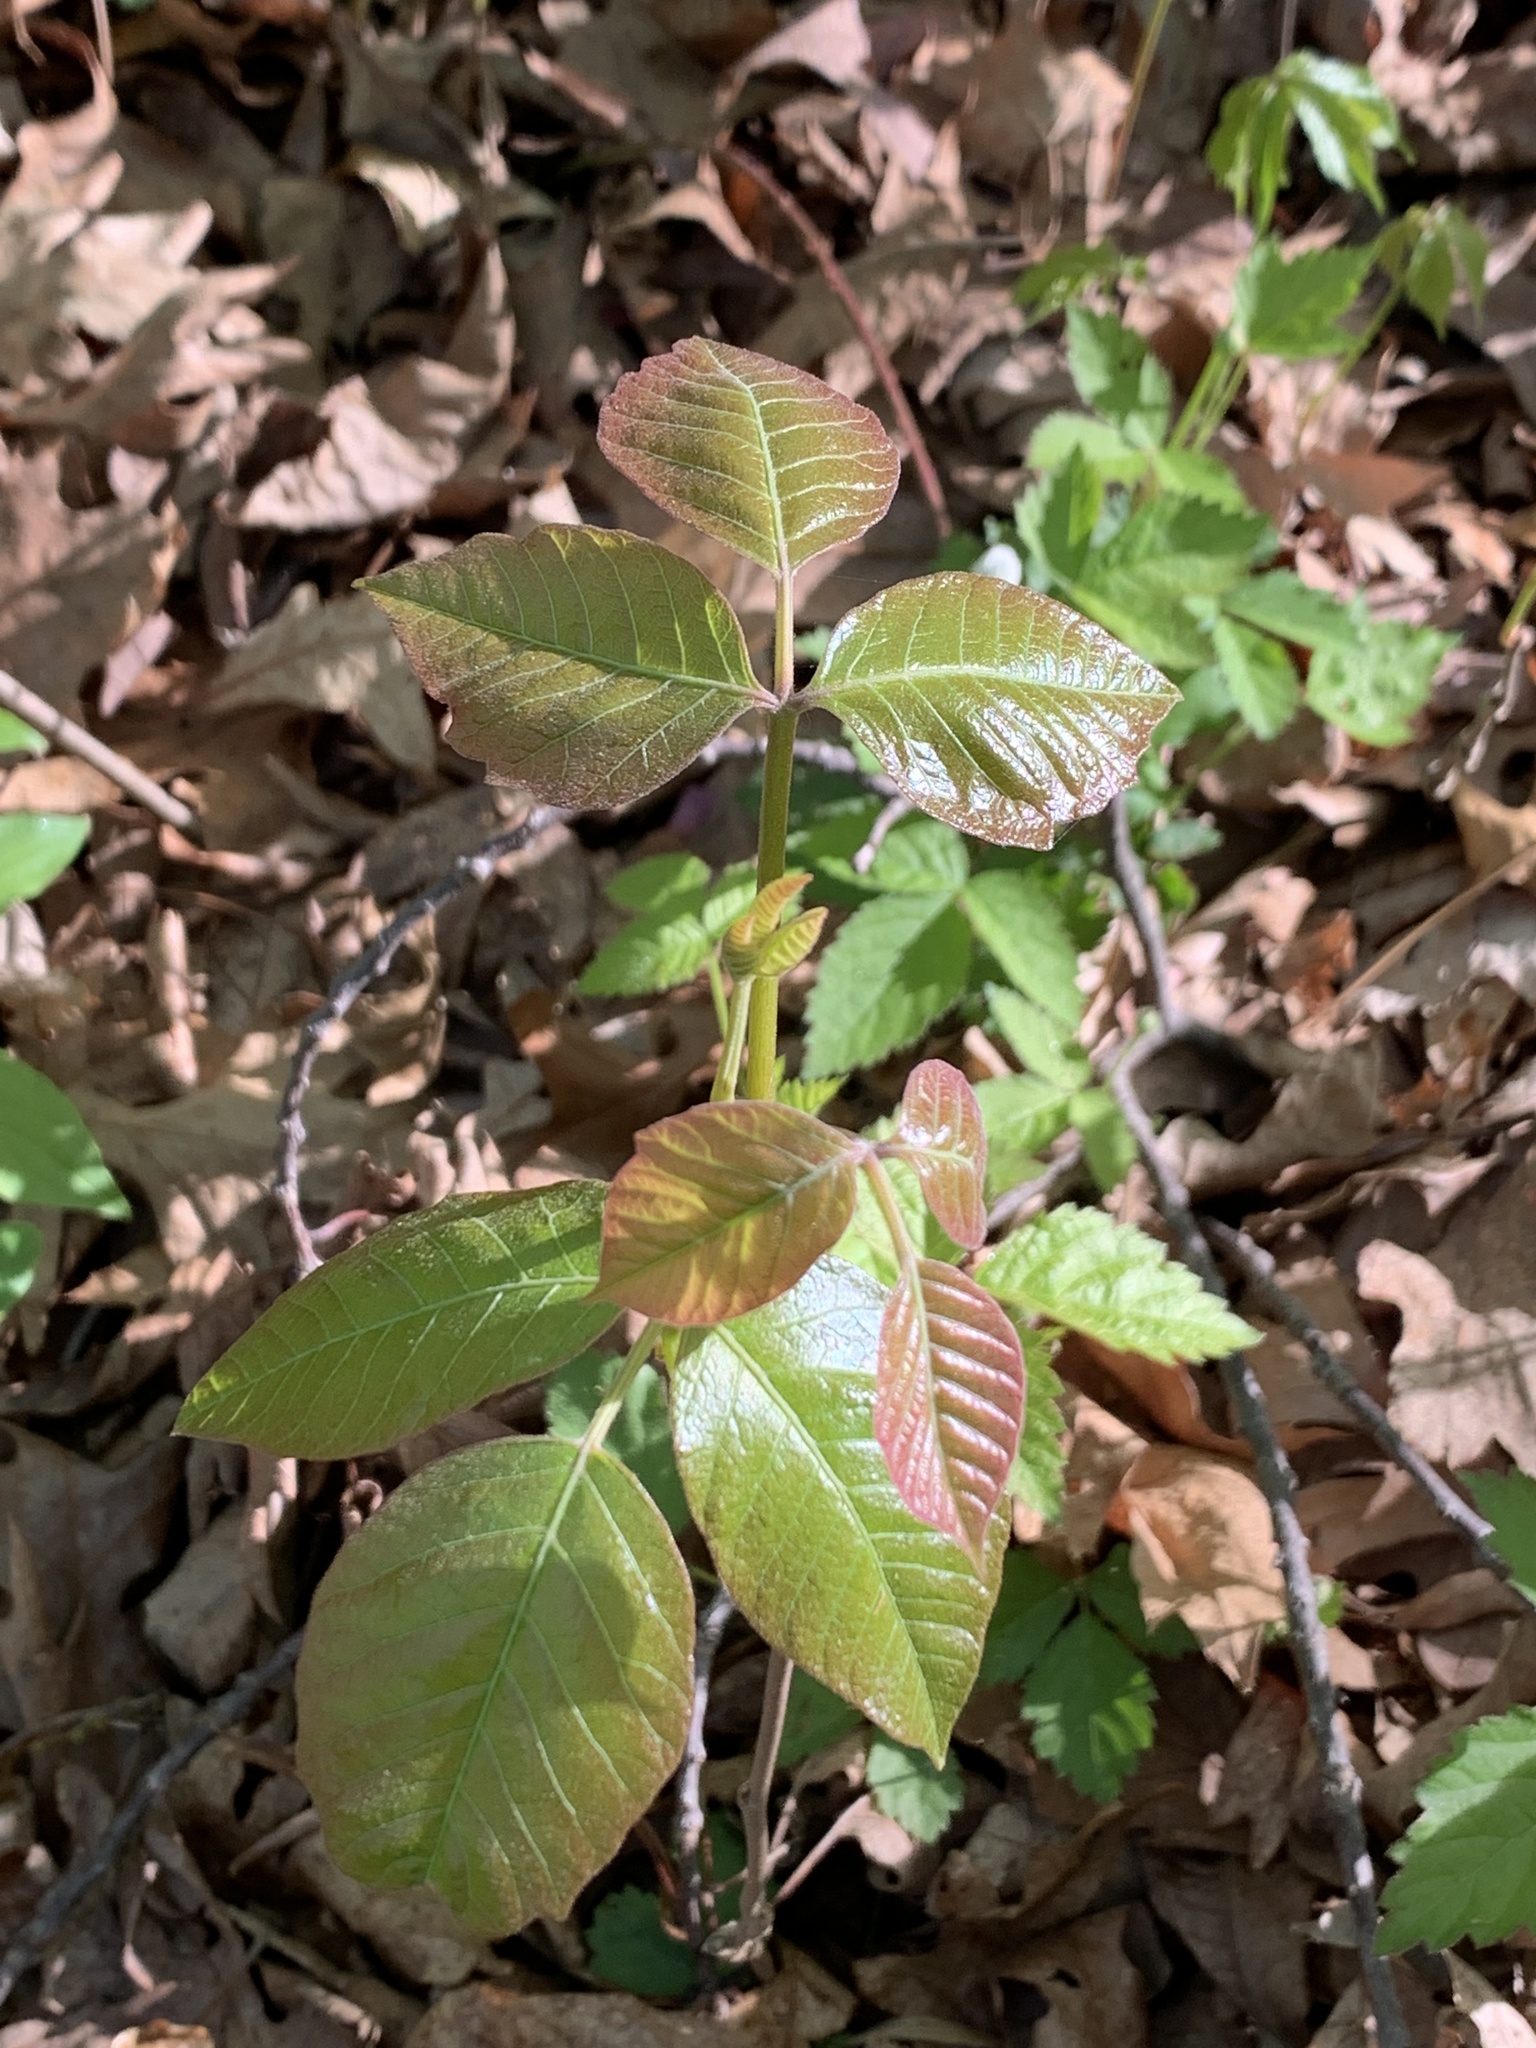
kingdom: Plantae
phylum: Tracheophyta
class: Magnoliopsida
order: Sapindales
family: Anacardiaceae
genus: Toxicodendron
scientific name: Toxicodendron radicans
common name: Poison ivy
